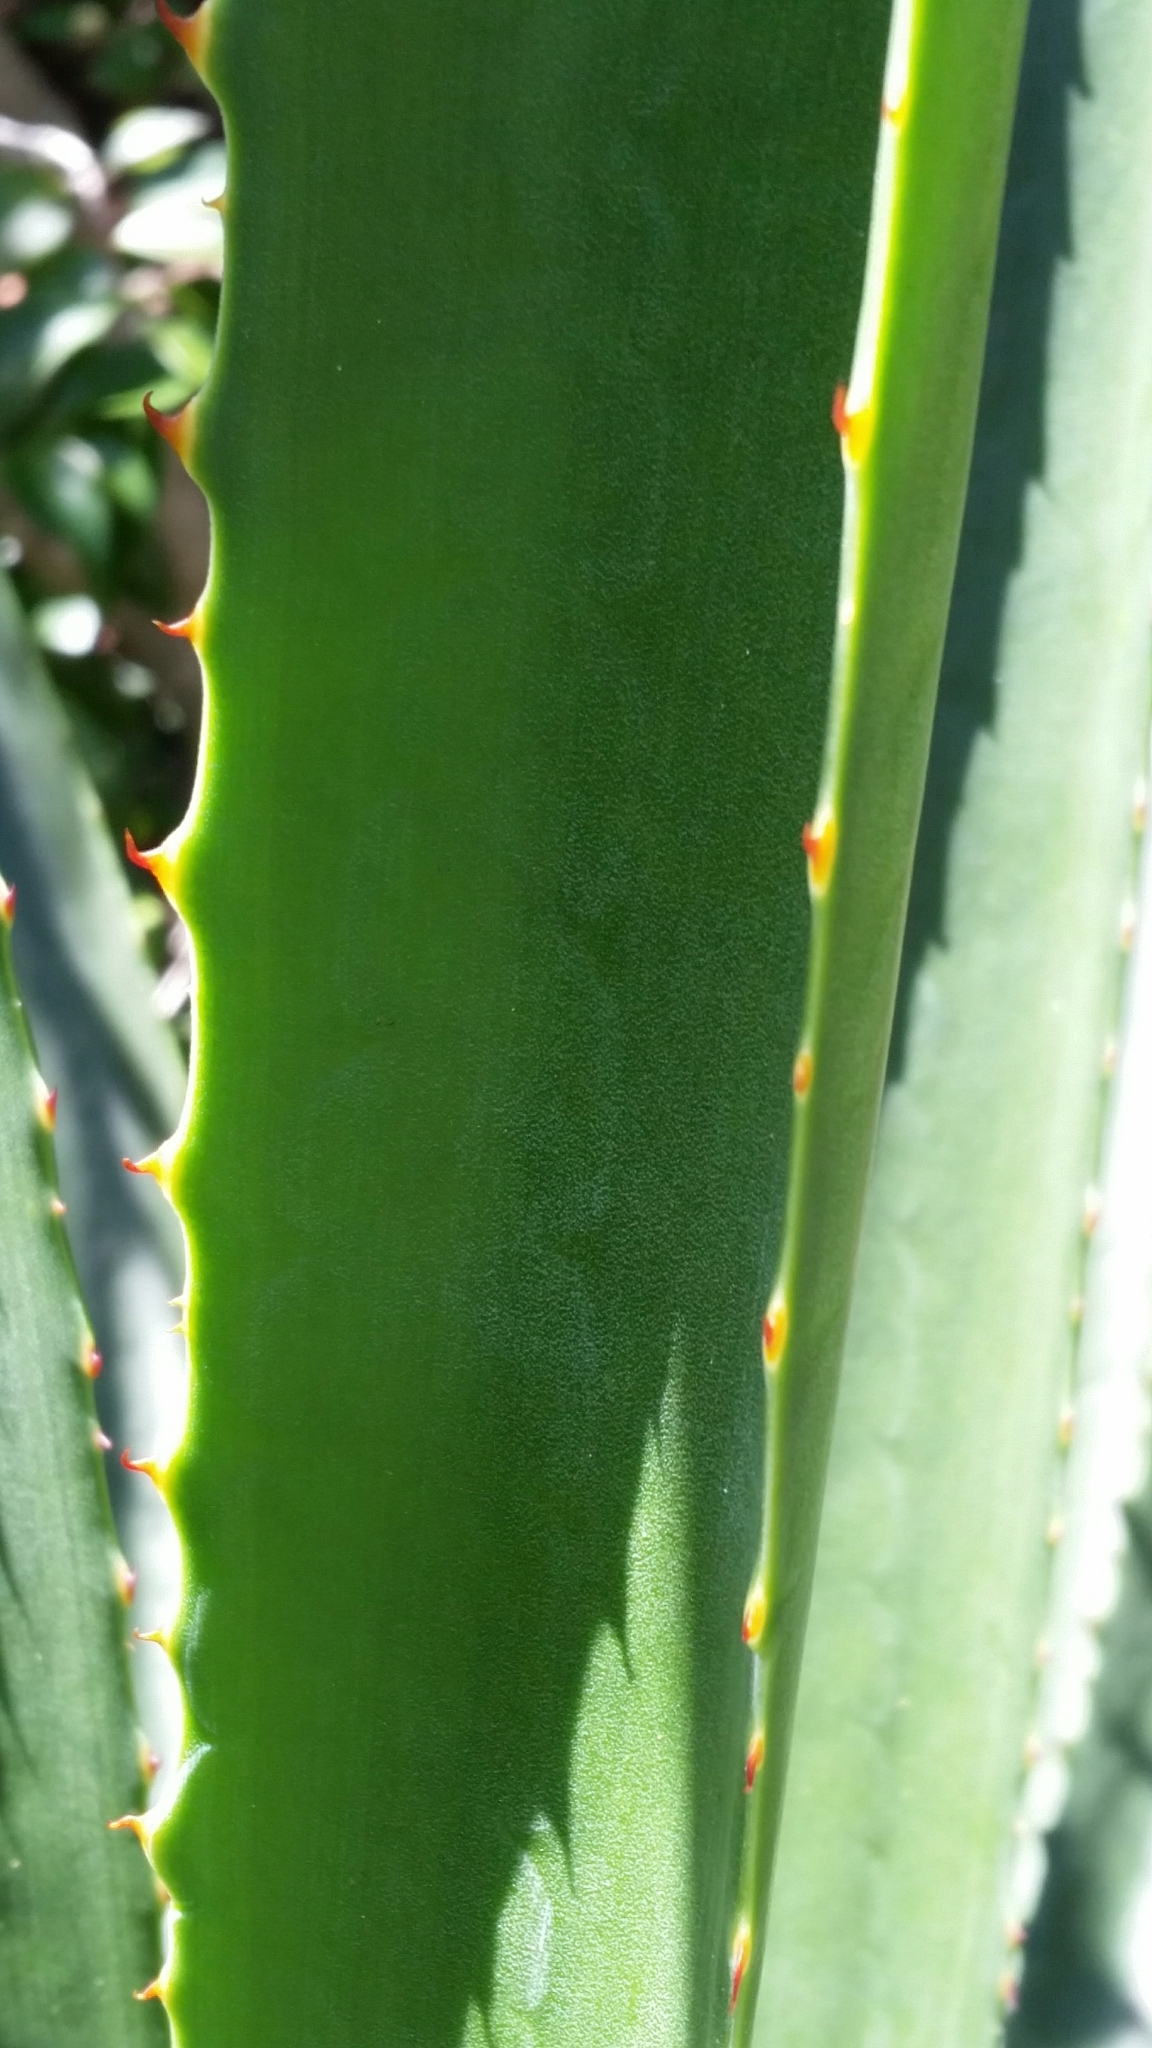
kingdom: Plantae
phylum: Tracheophyta
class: Liliopsida
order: Asparagales
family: Asparagaceae
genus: Agave
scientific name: Agave decipiens
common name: False sisal
